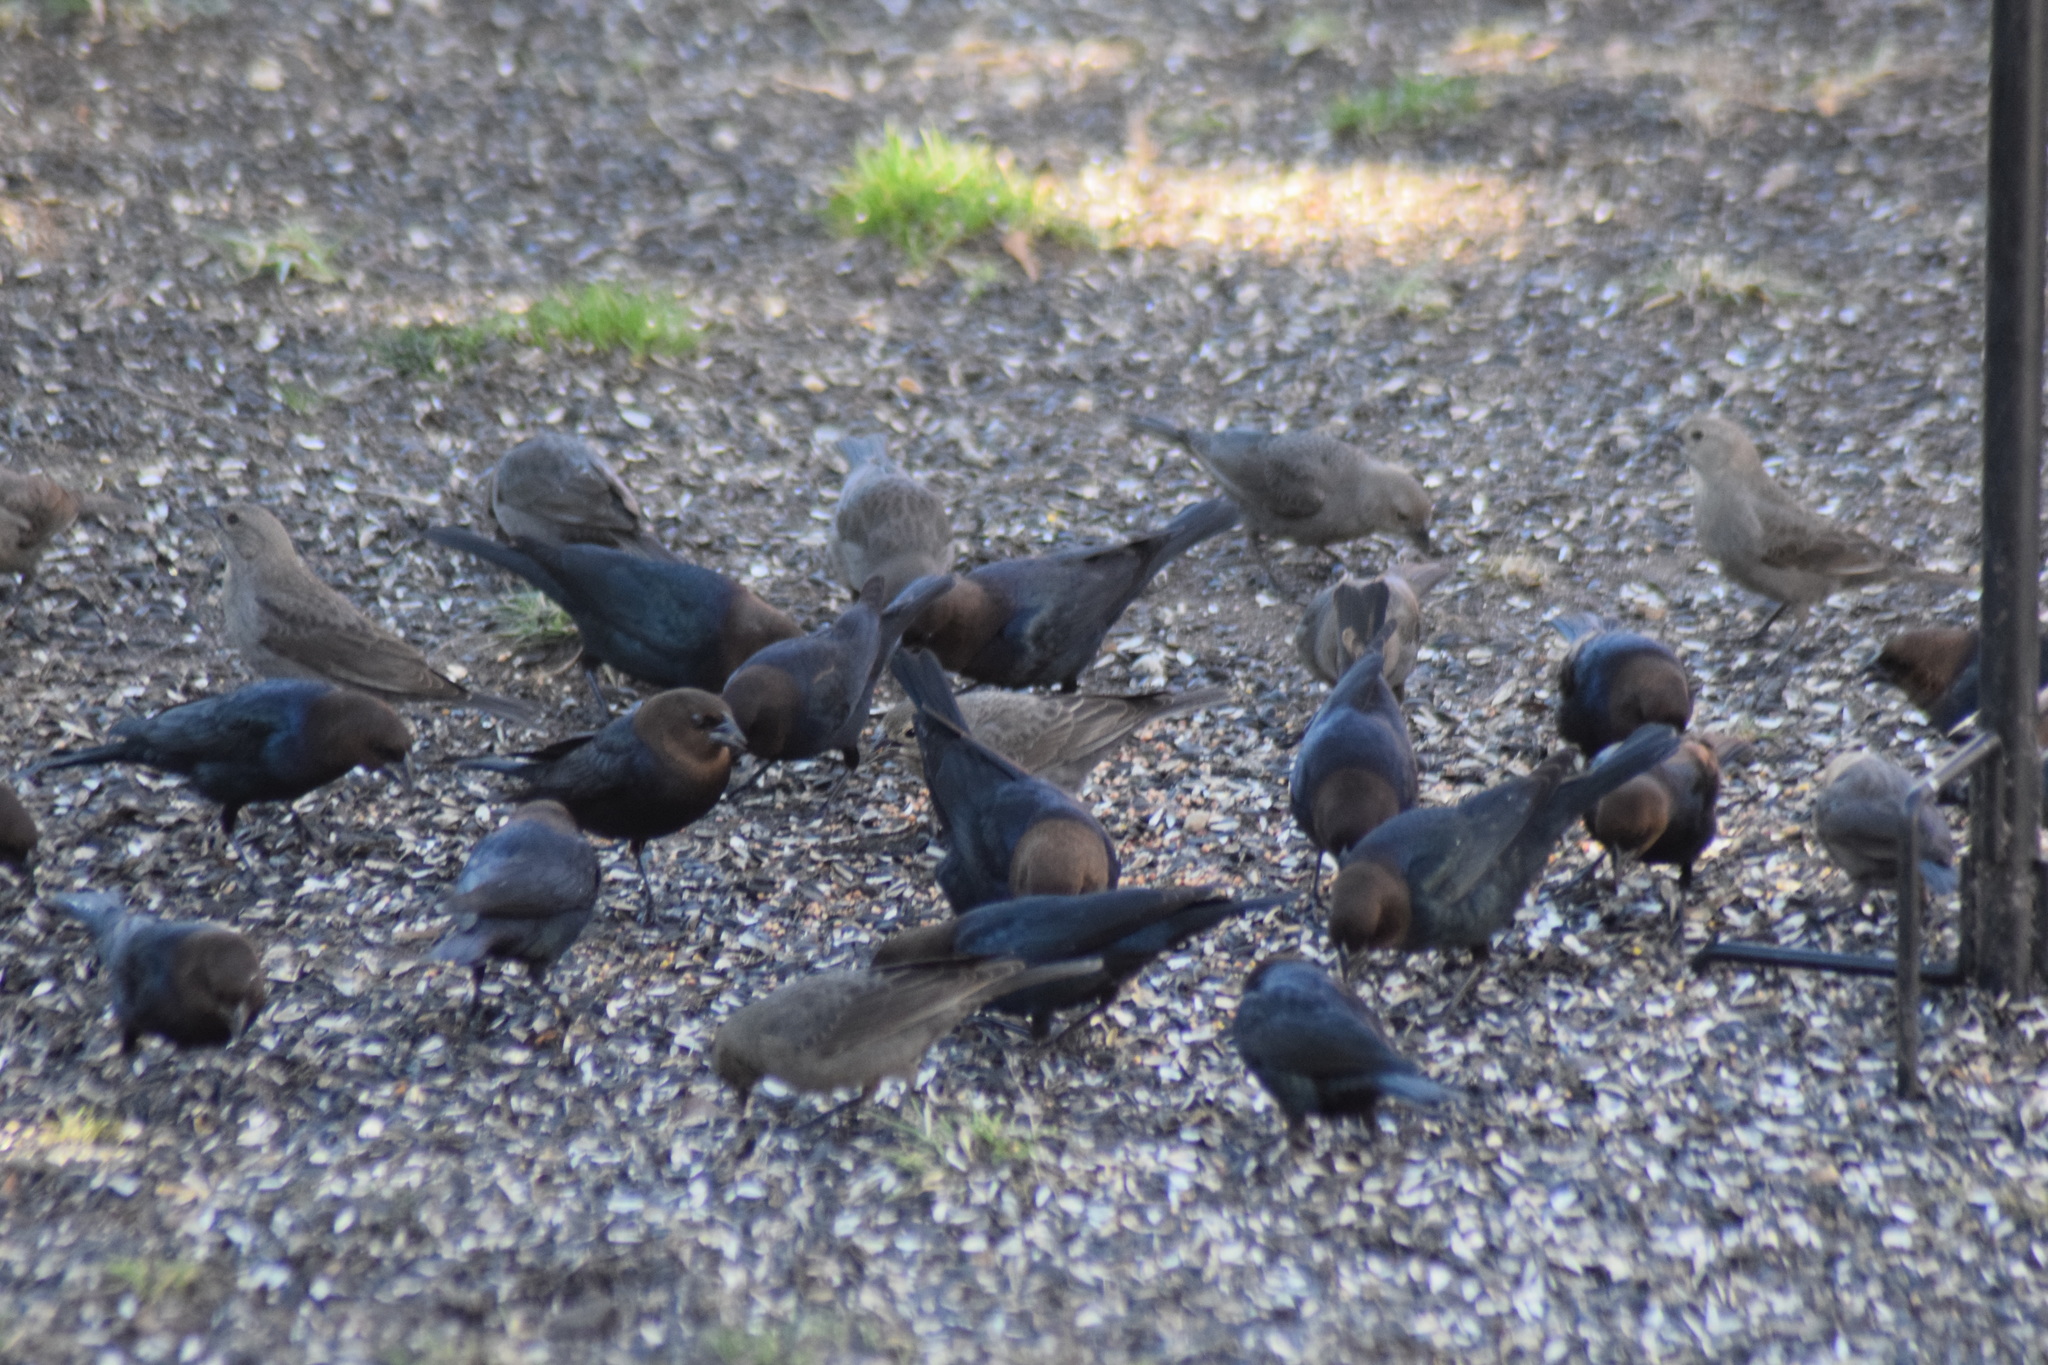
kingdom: Animalia
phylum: Chordata
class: Aves
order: Passeriformes
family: Icteridae
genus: Molothrus
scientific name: Molothrus ater
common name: Brown-headed cowbird
